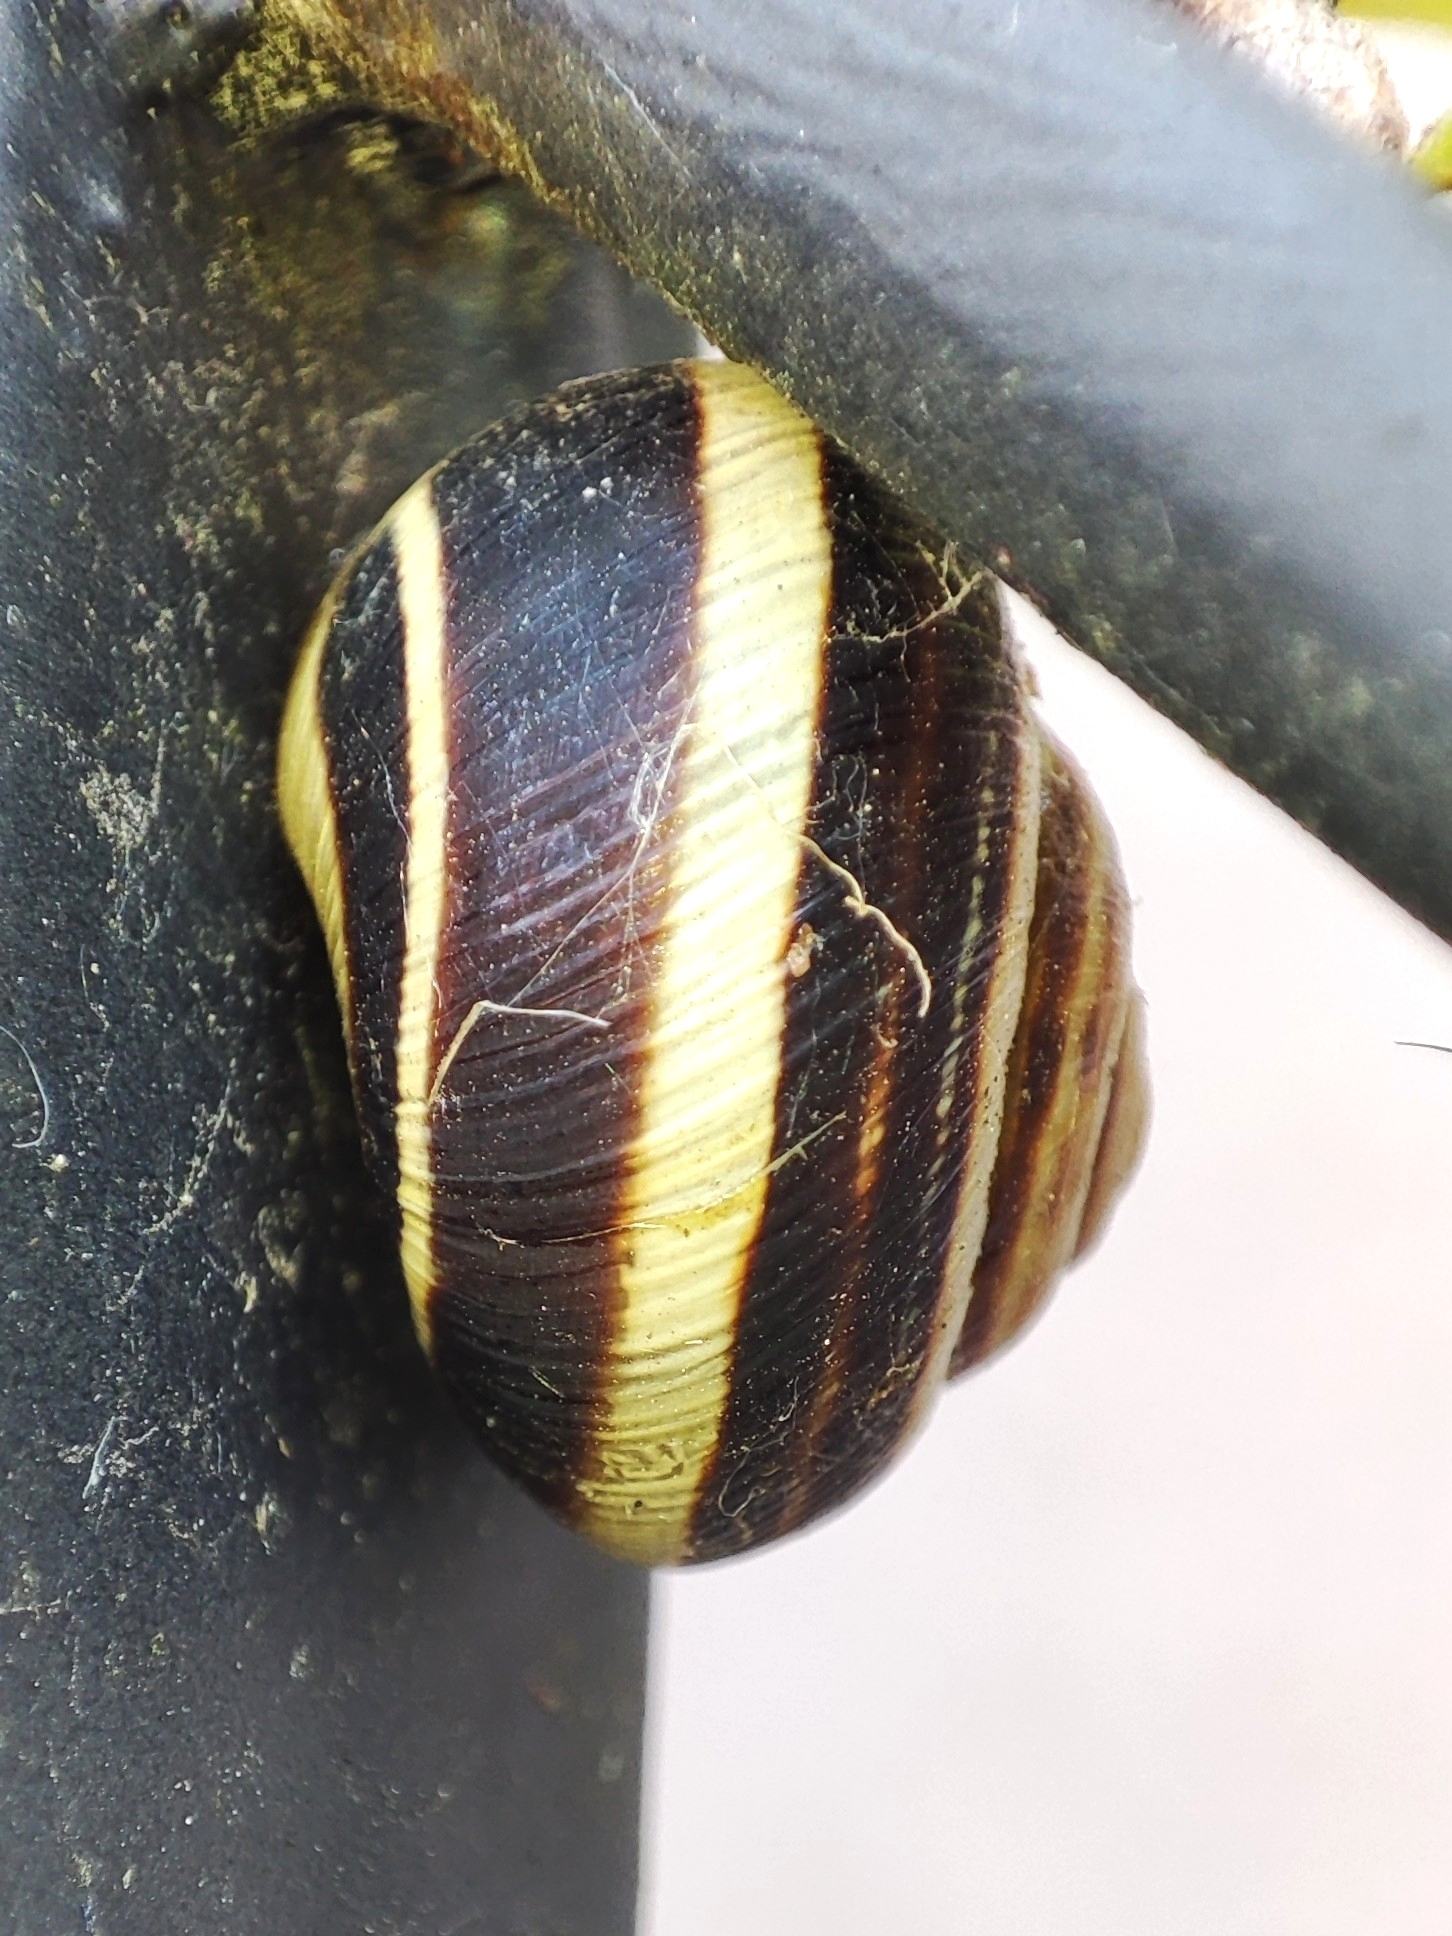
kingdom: Animalia
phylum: Mollusca
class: Gastropoda
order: Stylommatophora
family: Helicidae
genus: Caucasotachea
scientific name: Caucasotachea vindobonensis
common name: European helicid land snail
